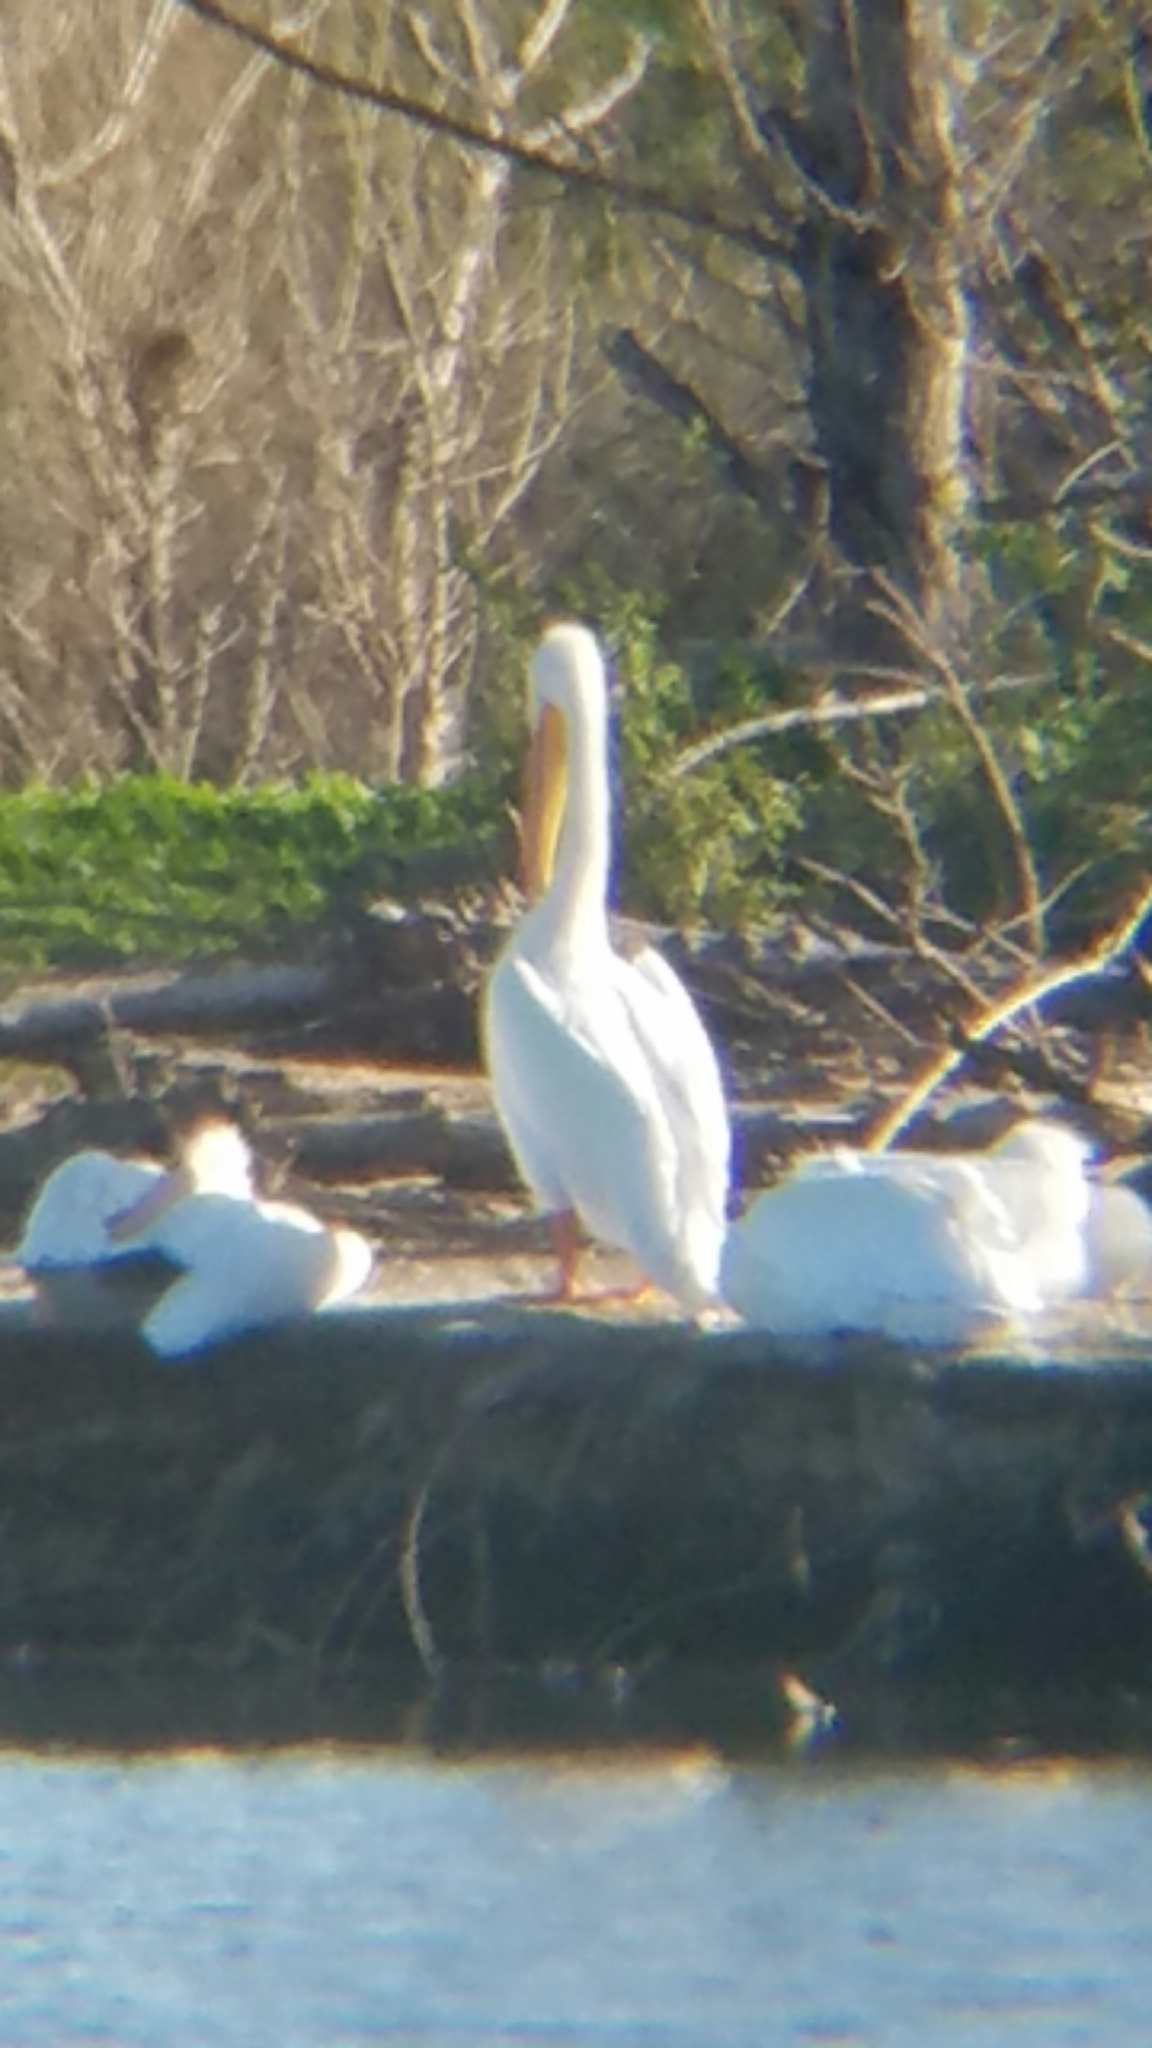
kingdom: Animalia
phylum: Chordata
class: Aves
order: Pelecaniformes
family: Pelecanidae
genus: Pelecanus
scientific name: Pelecanus erythrorhynchos
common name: American white pelican
